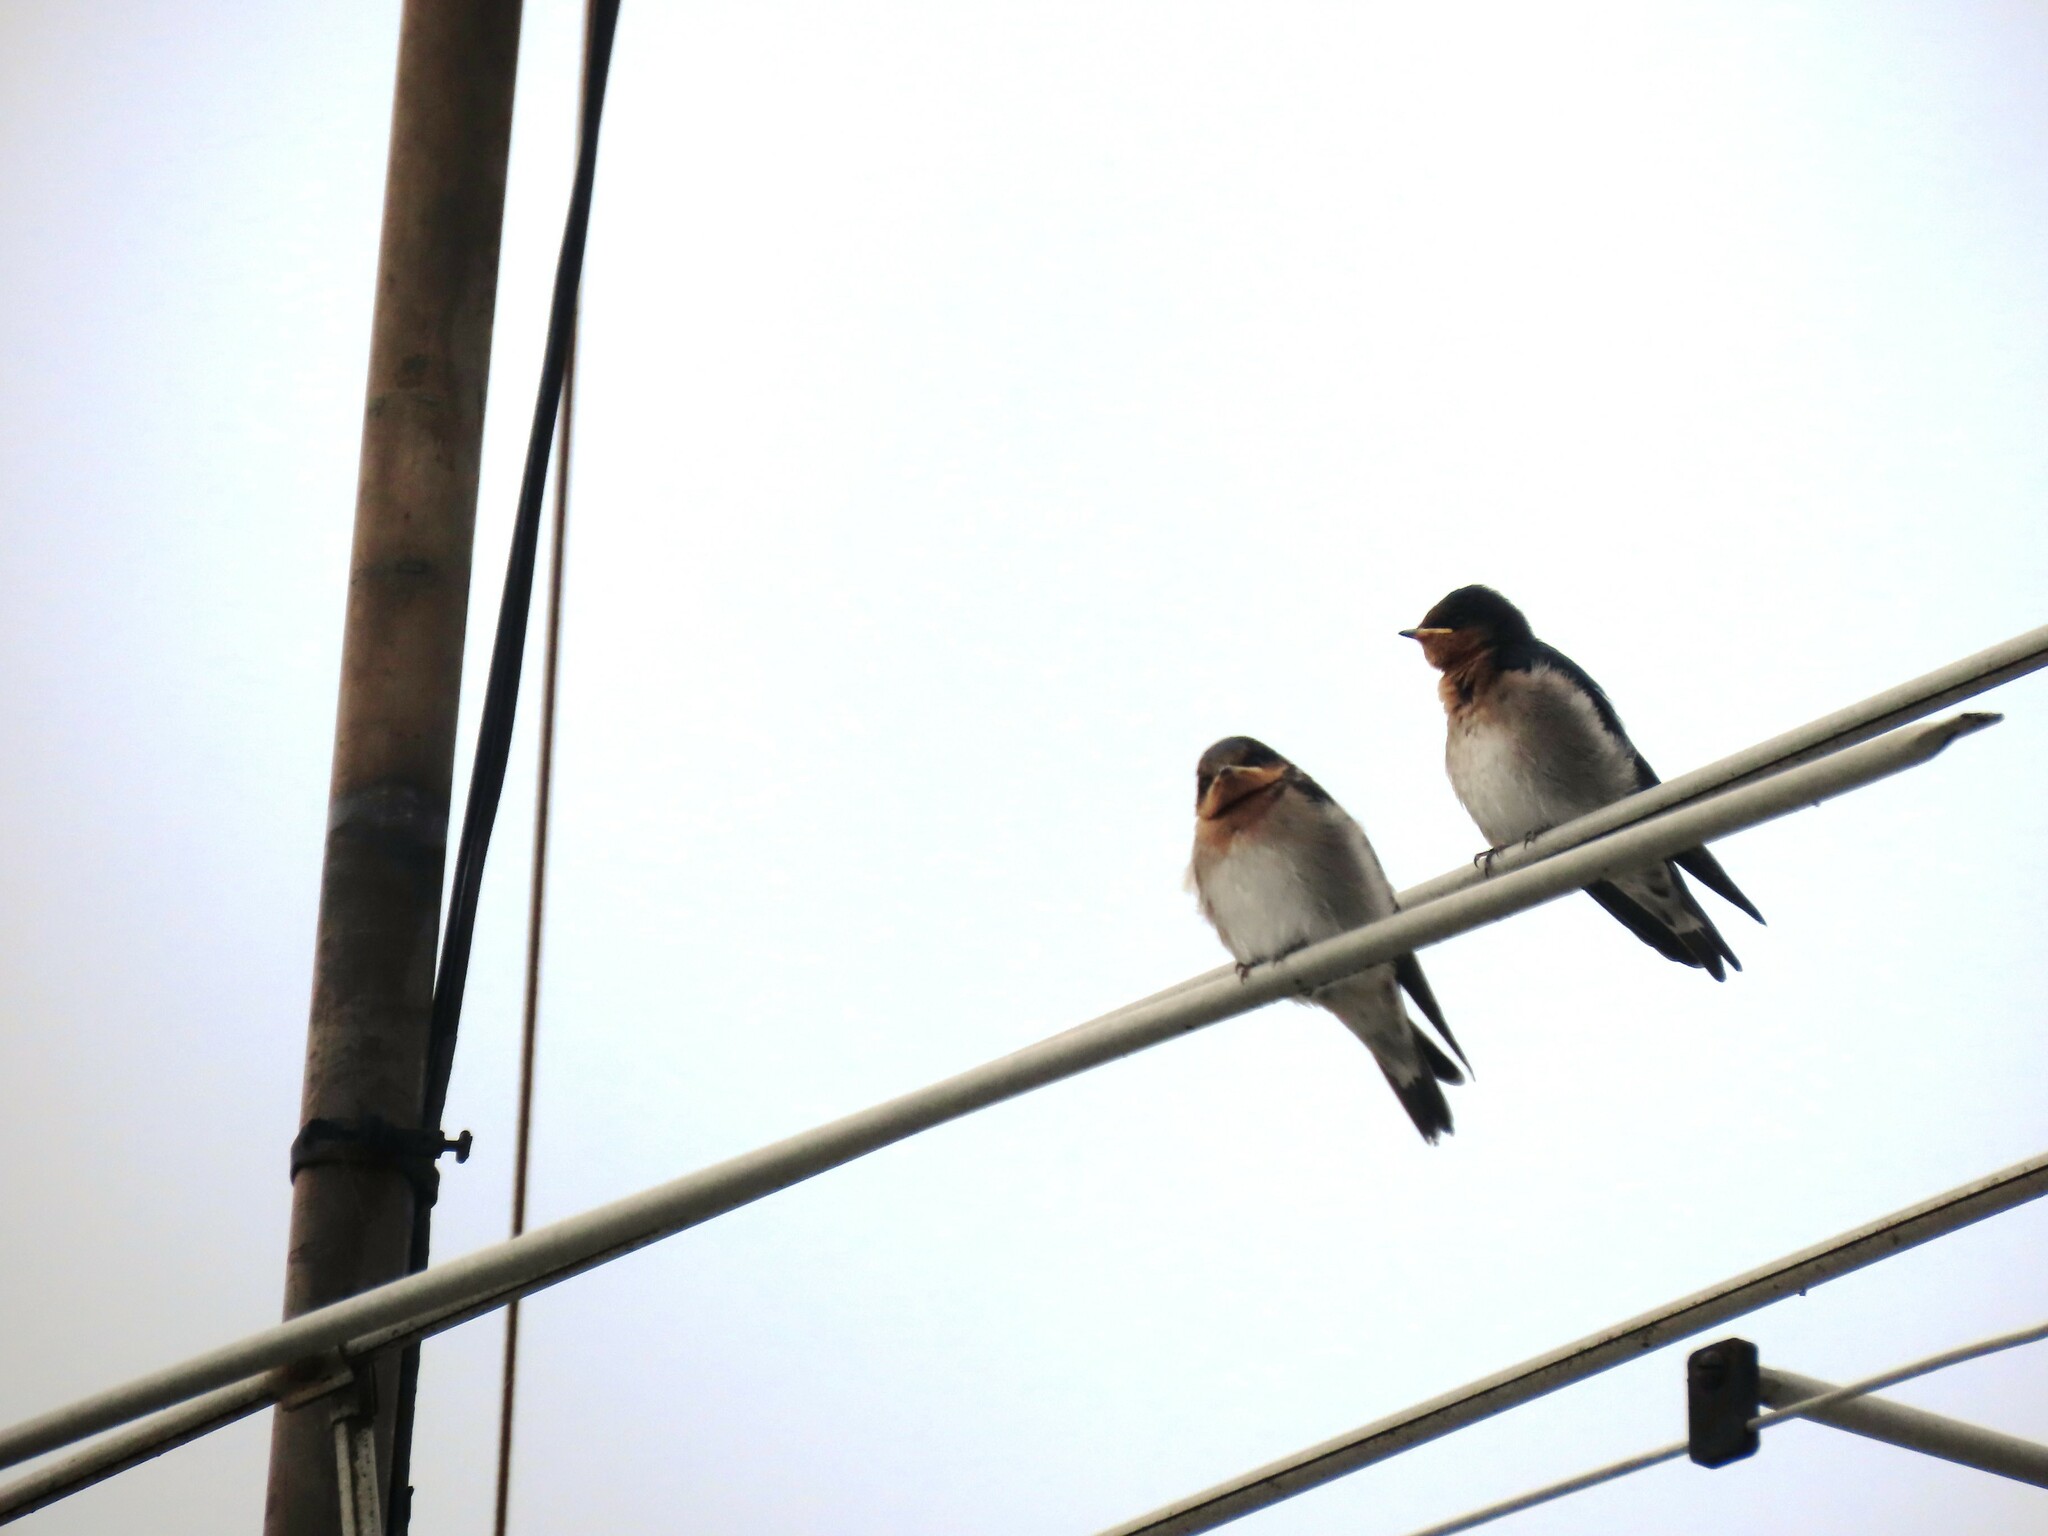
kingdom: Animalia
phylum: Chordata
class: Aves
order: Passeriformes
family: Hirundinidae
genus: Hirundo
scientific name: Hirundo neoxena
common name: Welcome swallow
